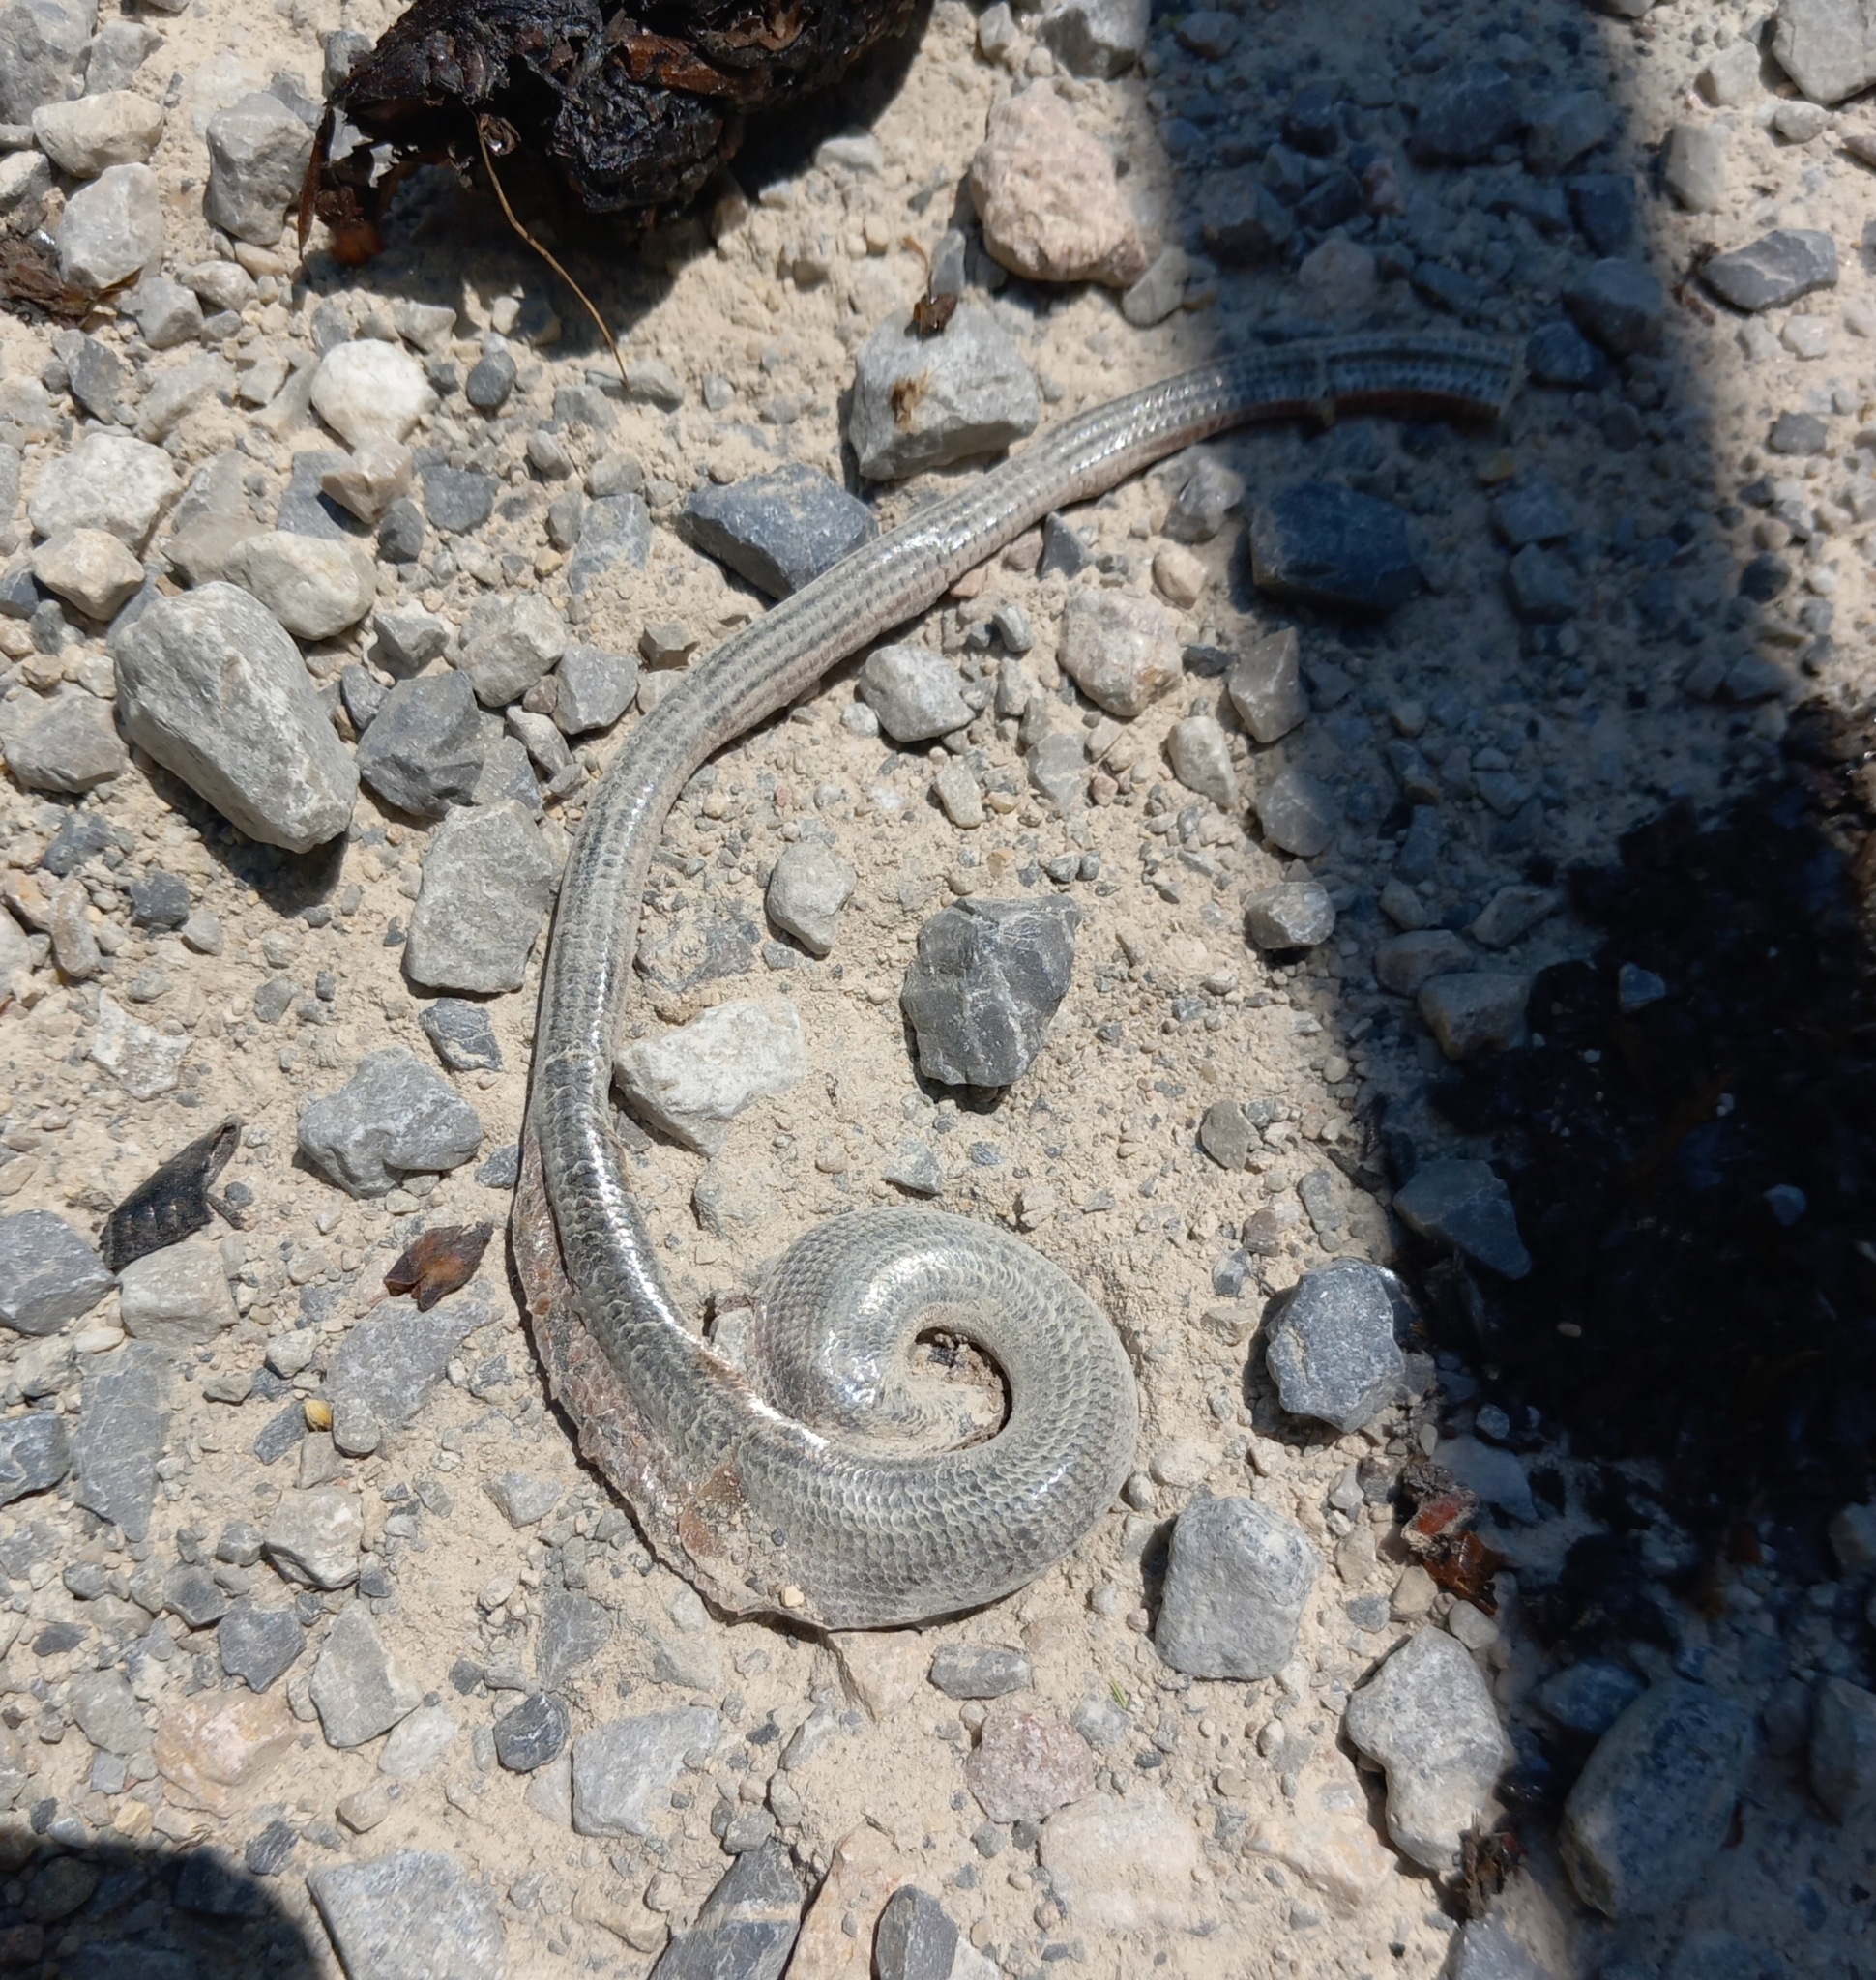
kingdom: Animalia
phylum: Chordata
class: Squamata
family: Anguidae
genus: Anguis
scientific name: Anguis fragilis
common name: Slow worm
